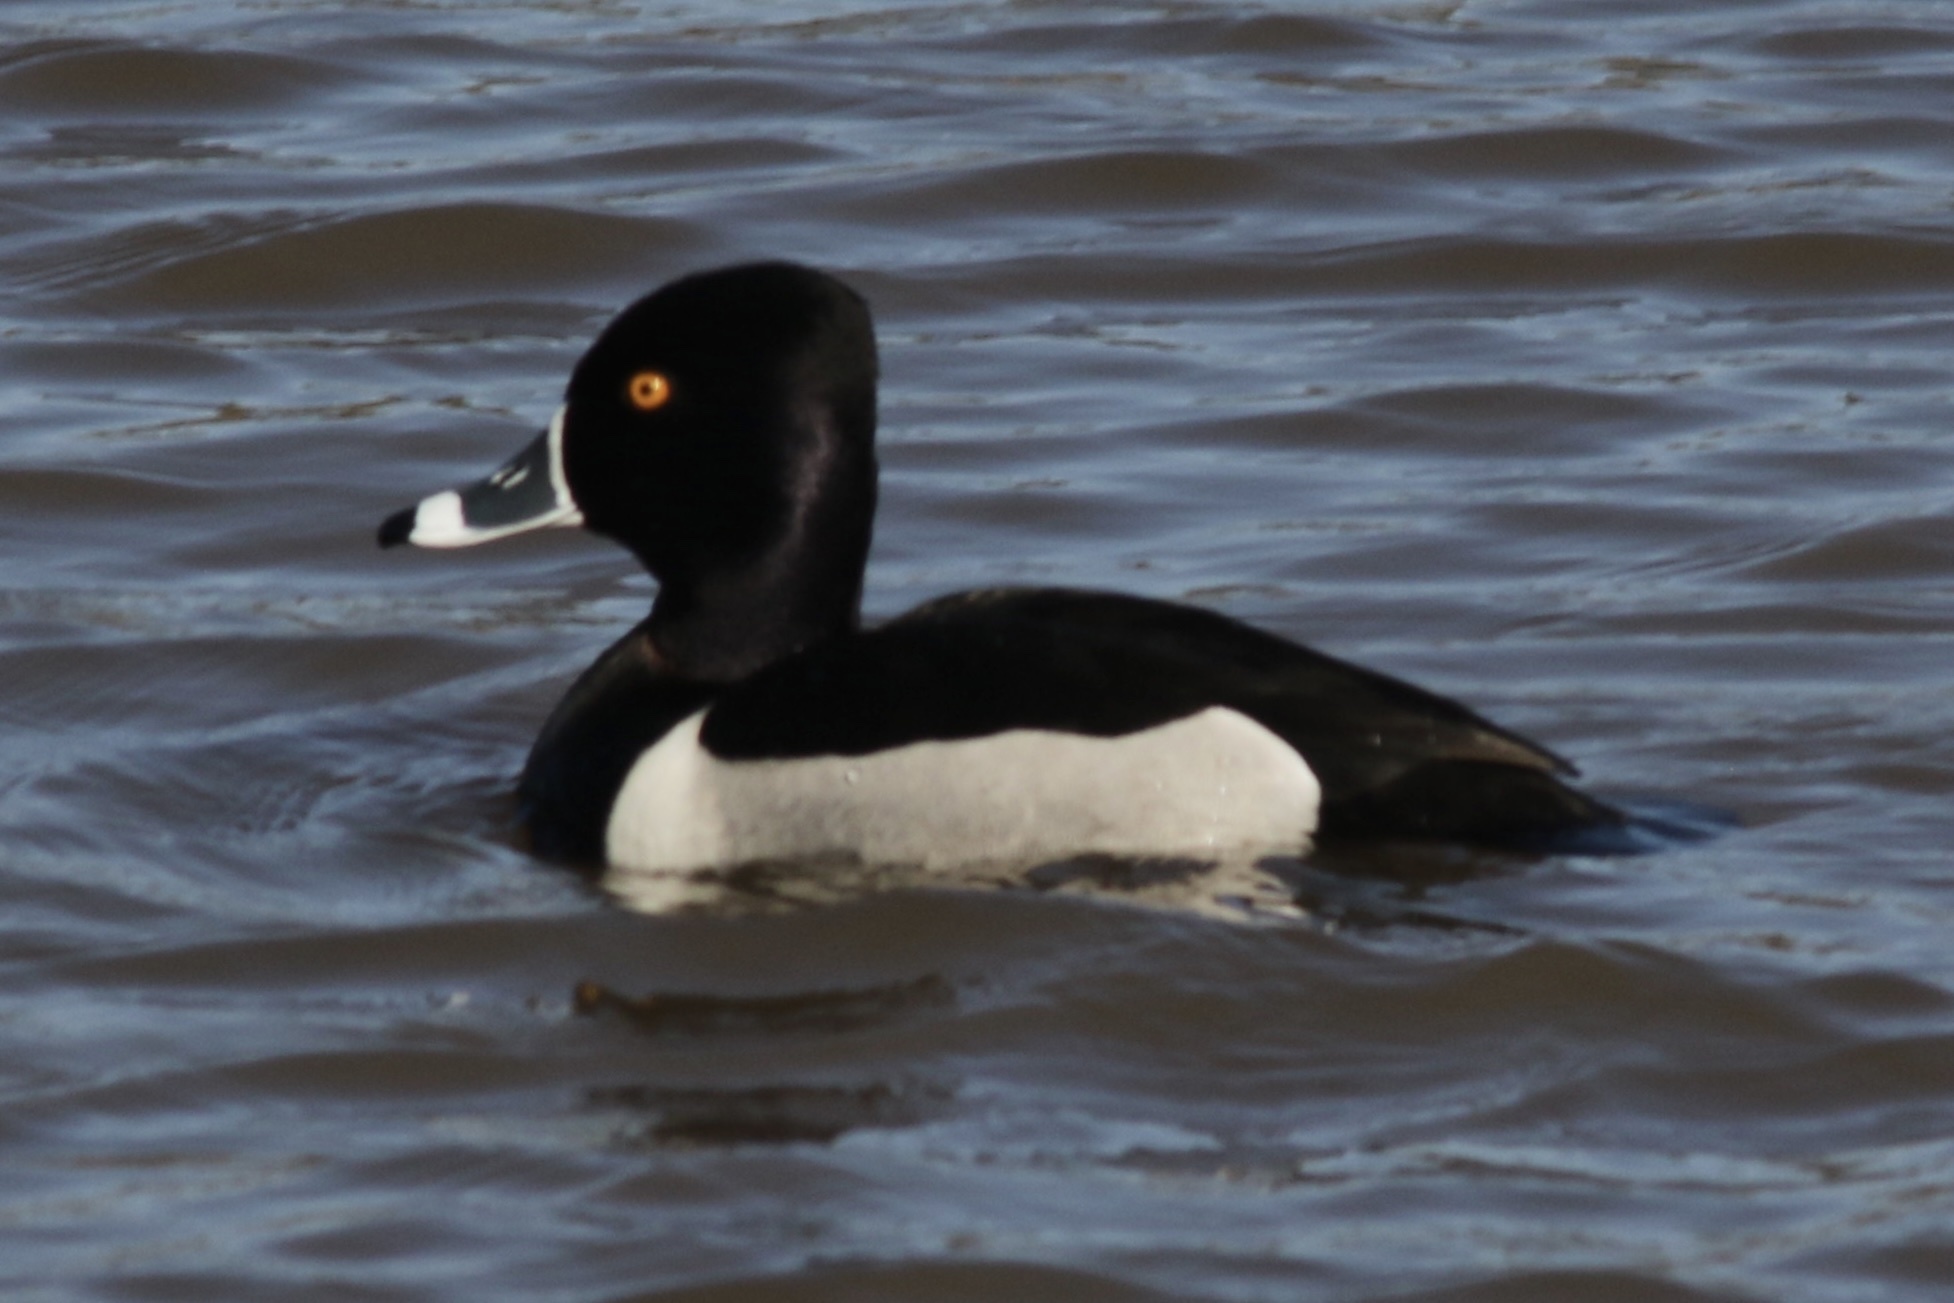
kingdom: Animalia
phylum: Chordata
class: Aves
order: Anseriformes
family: Anatidae
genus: Aythya
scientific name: Aythya collaris
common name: Ring-necked duck
